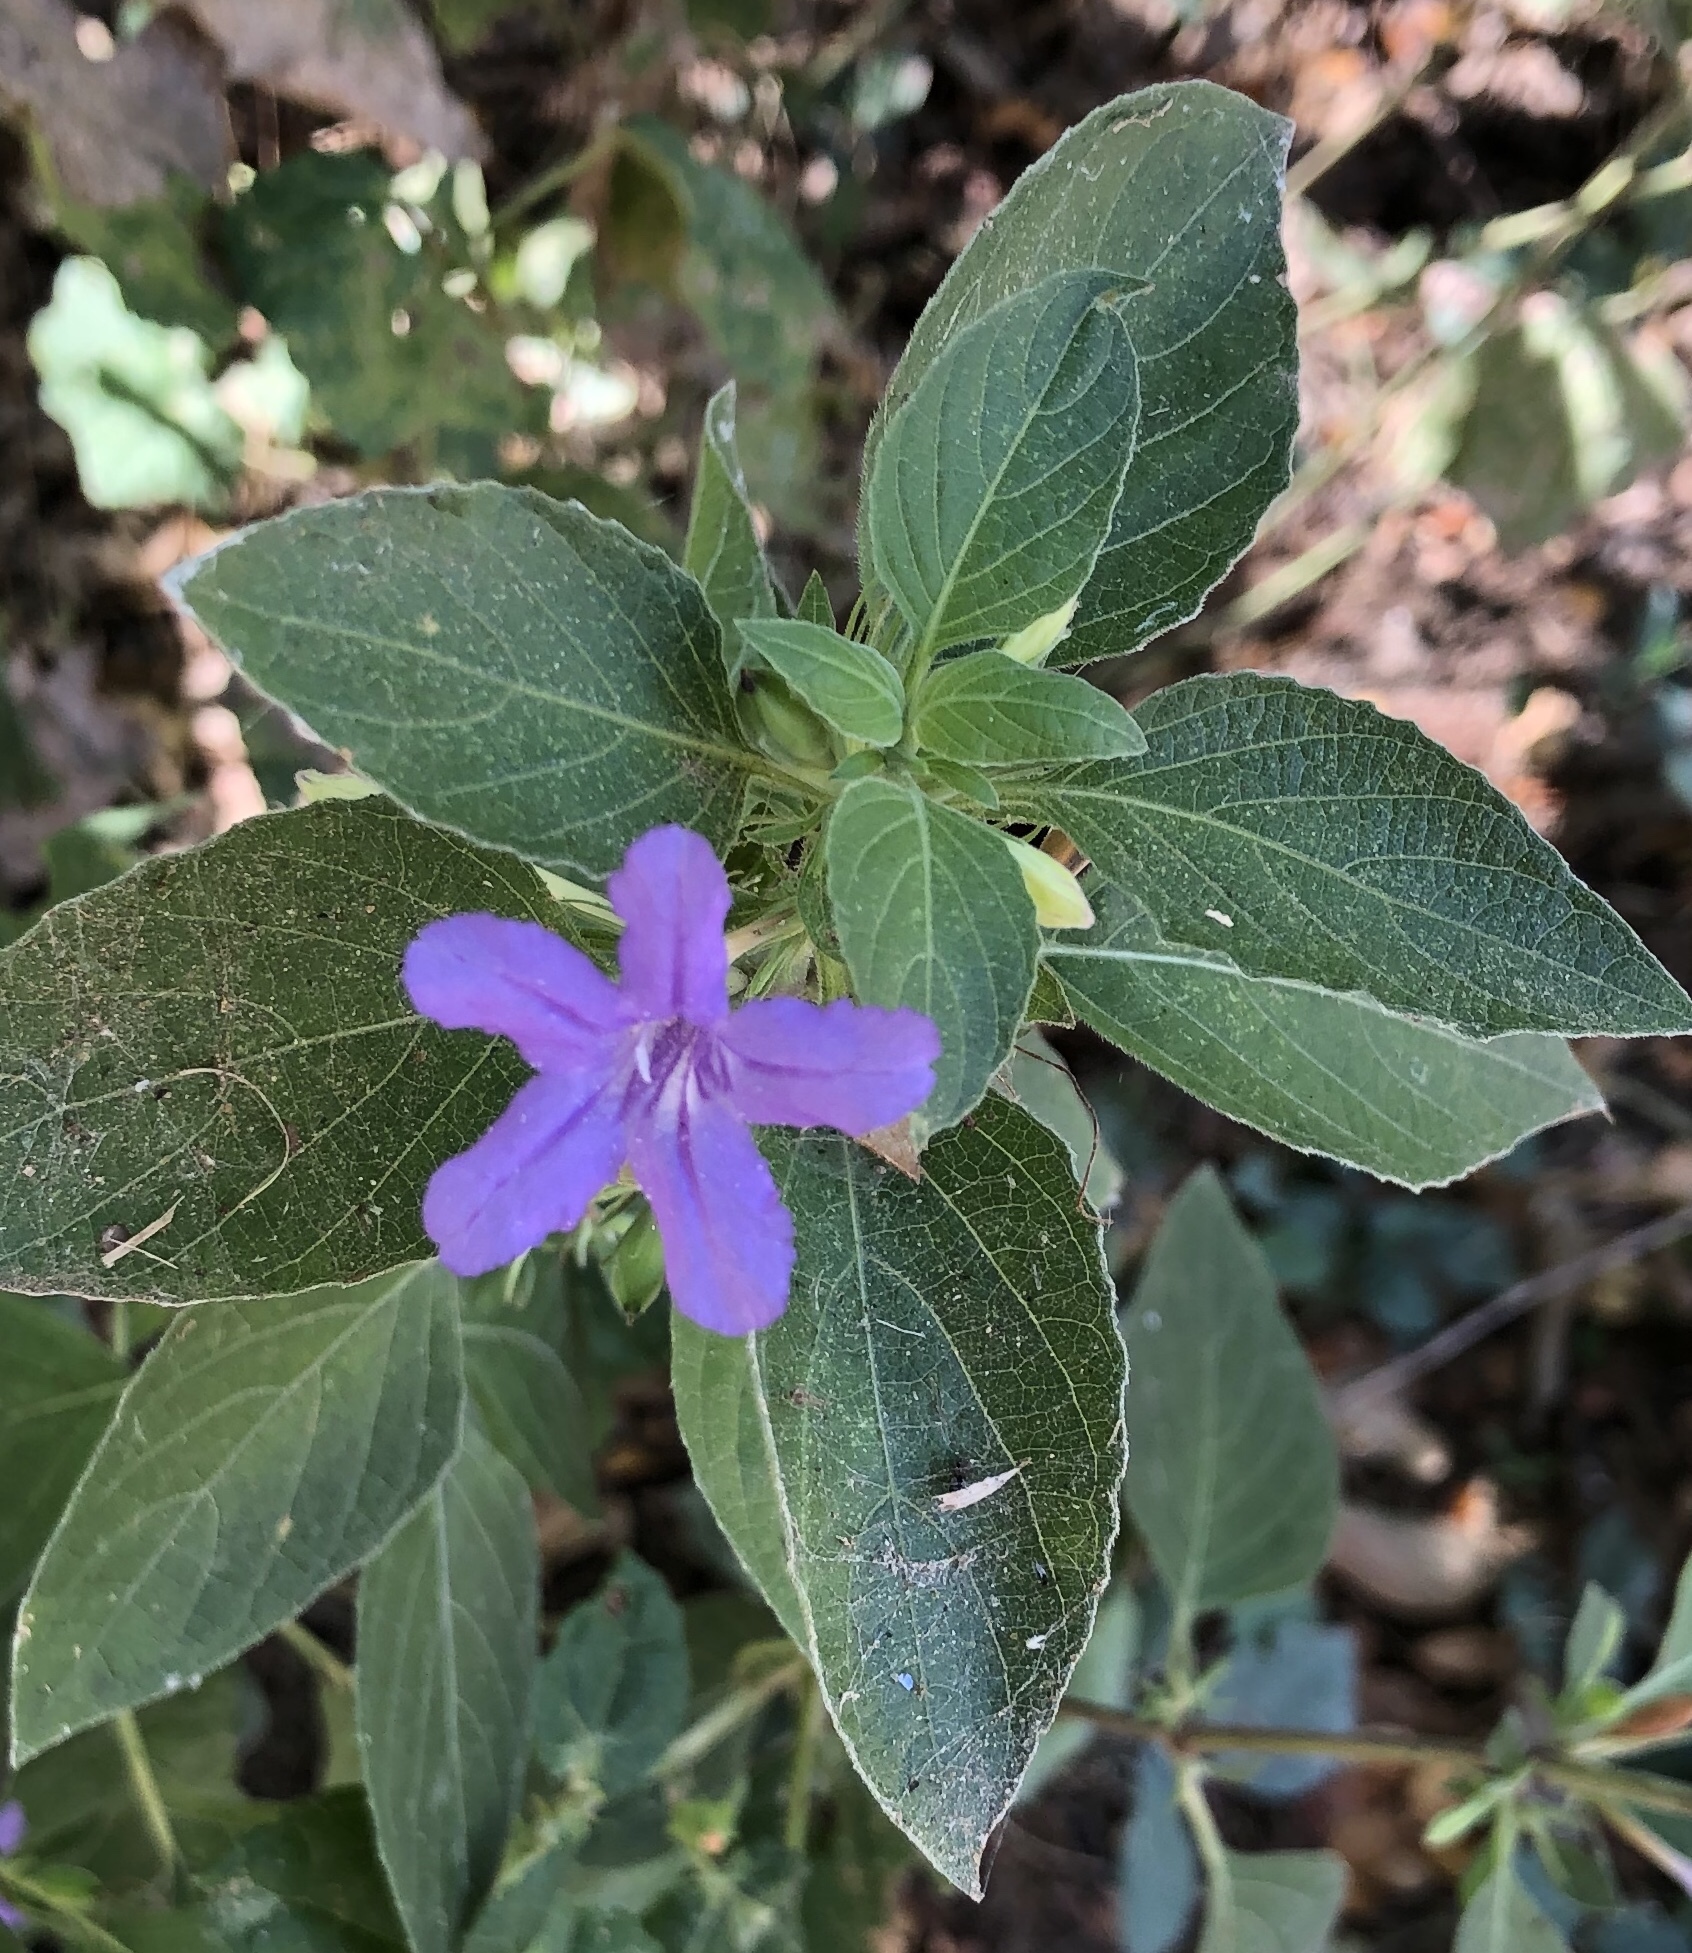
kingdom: Plantae
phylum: Tracheophyta
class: Magnoliopsida
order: Lamiales
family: Acanthaceae
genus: Ruellia
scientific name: Ruellia drummondiana
